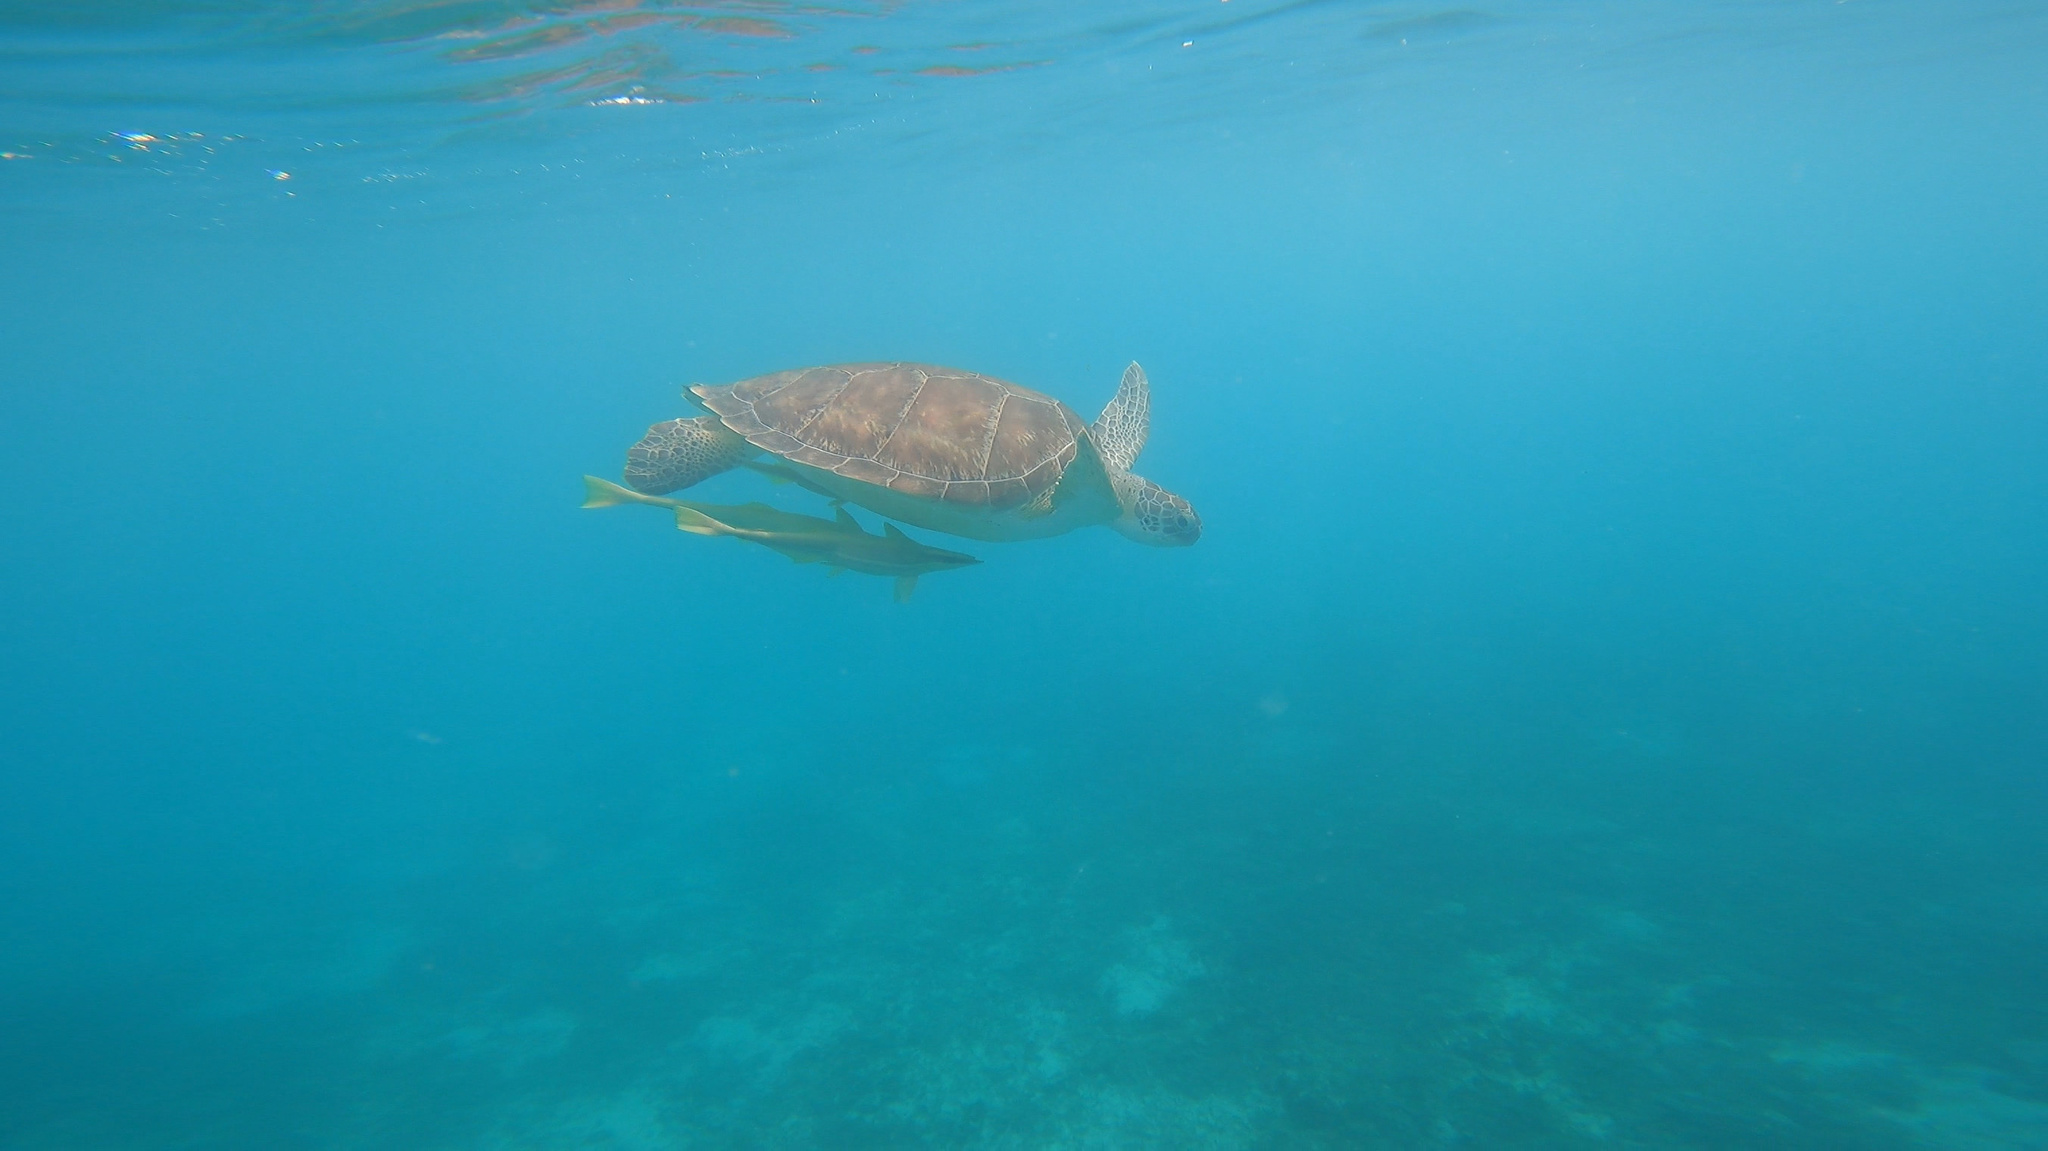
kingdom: Animalia
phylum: Chordata
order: Perciformes
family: Echeneidae
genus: Echeneis
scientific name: Echeneis naucrates
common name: Sharksucker
